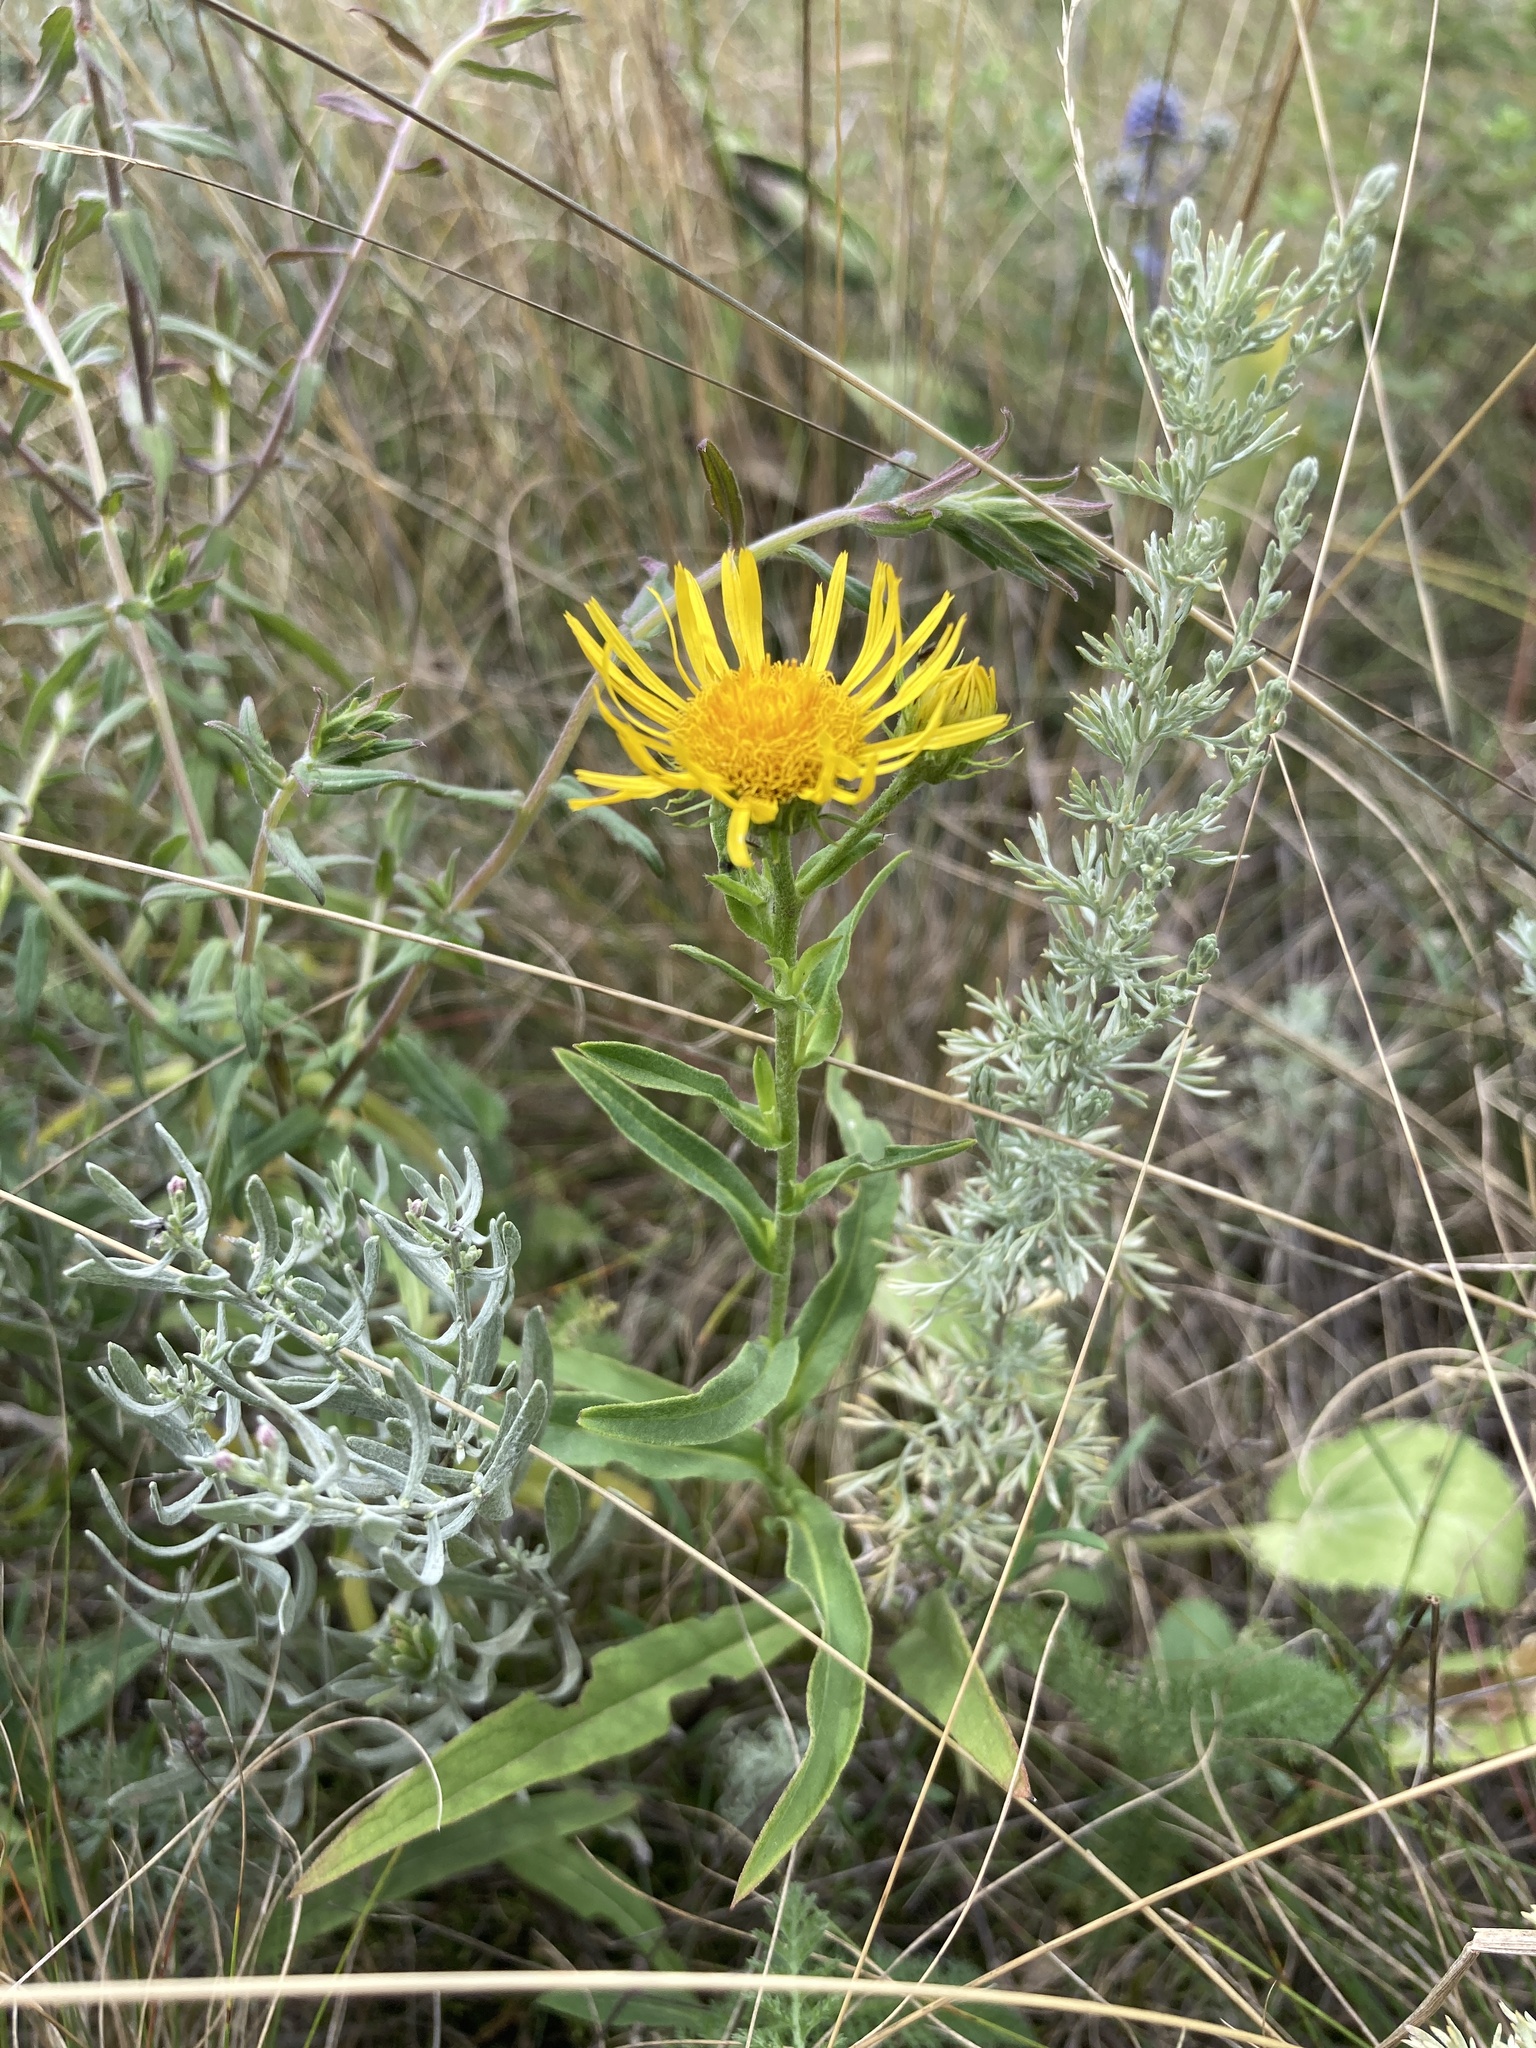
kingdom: Plantae
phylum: Tracheophyta
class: Magnoliopsida
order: Asterales
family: Asteraceae
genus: Pentanema
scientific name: Pentanema britannicum
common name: British elecampane
